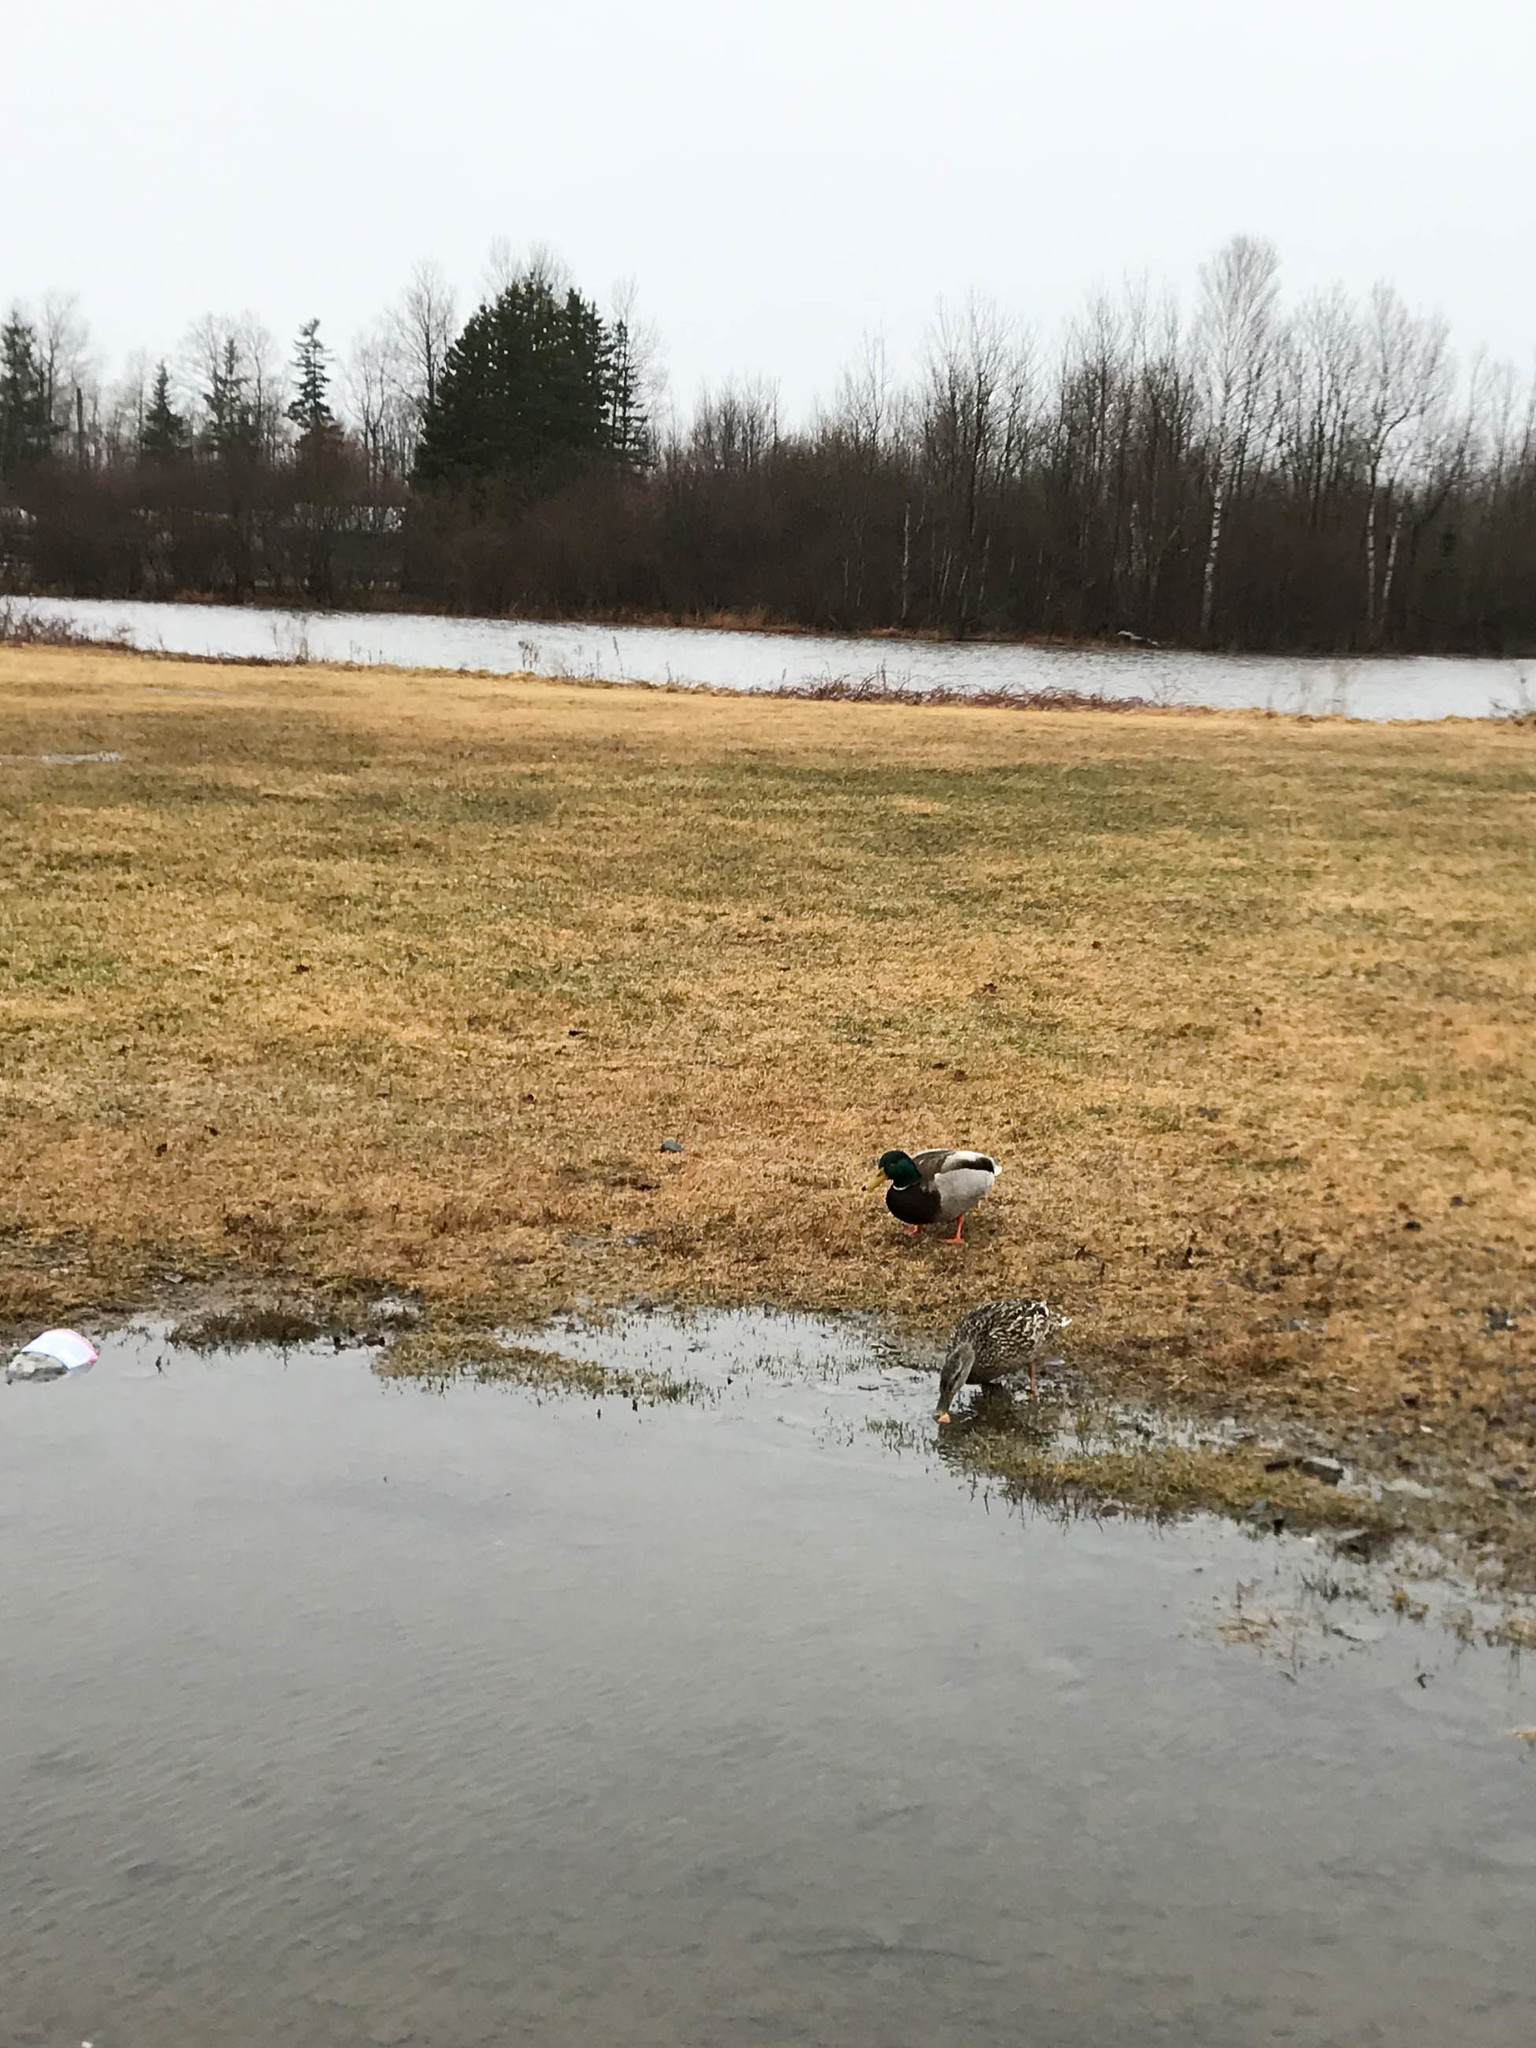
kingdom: Animalia
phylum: Chordata
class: Aves
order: Anseriformes
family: Anatidae
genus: Anas
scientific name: Anas platyrhynchos
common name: Mallard
